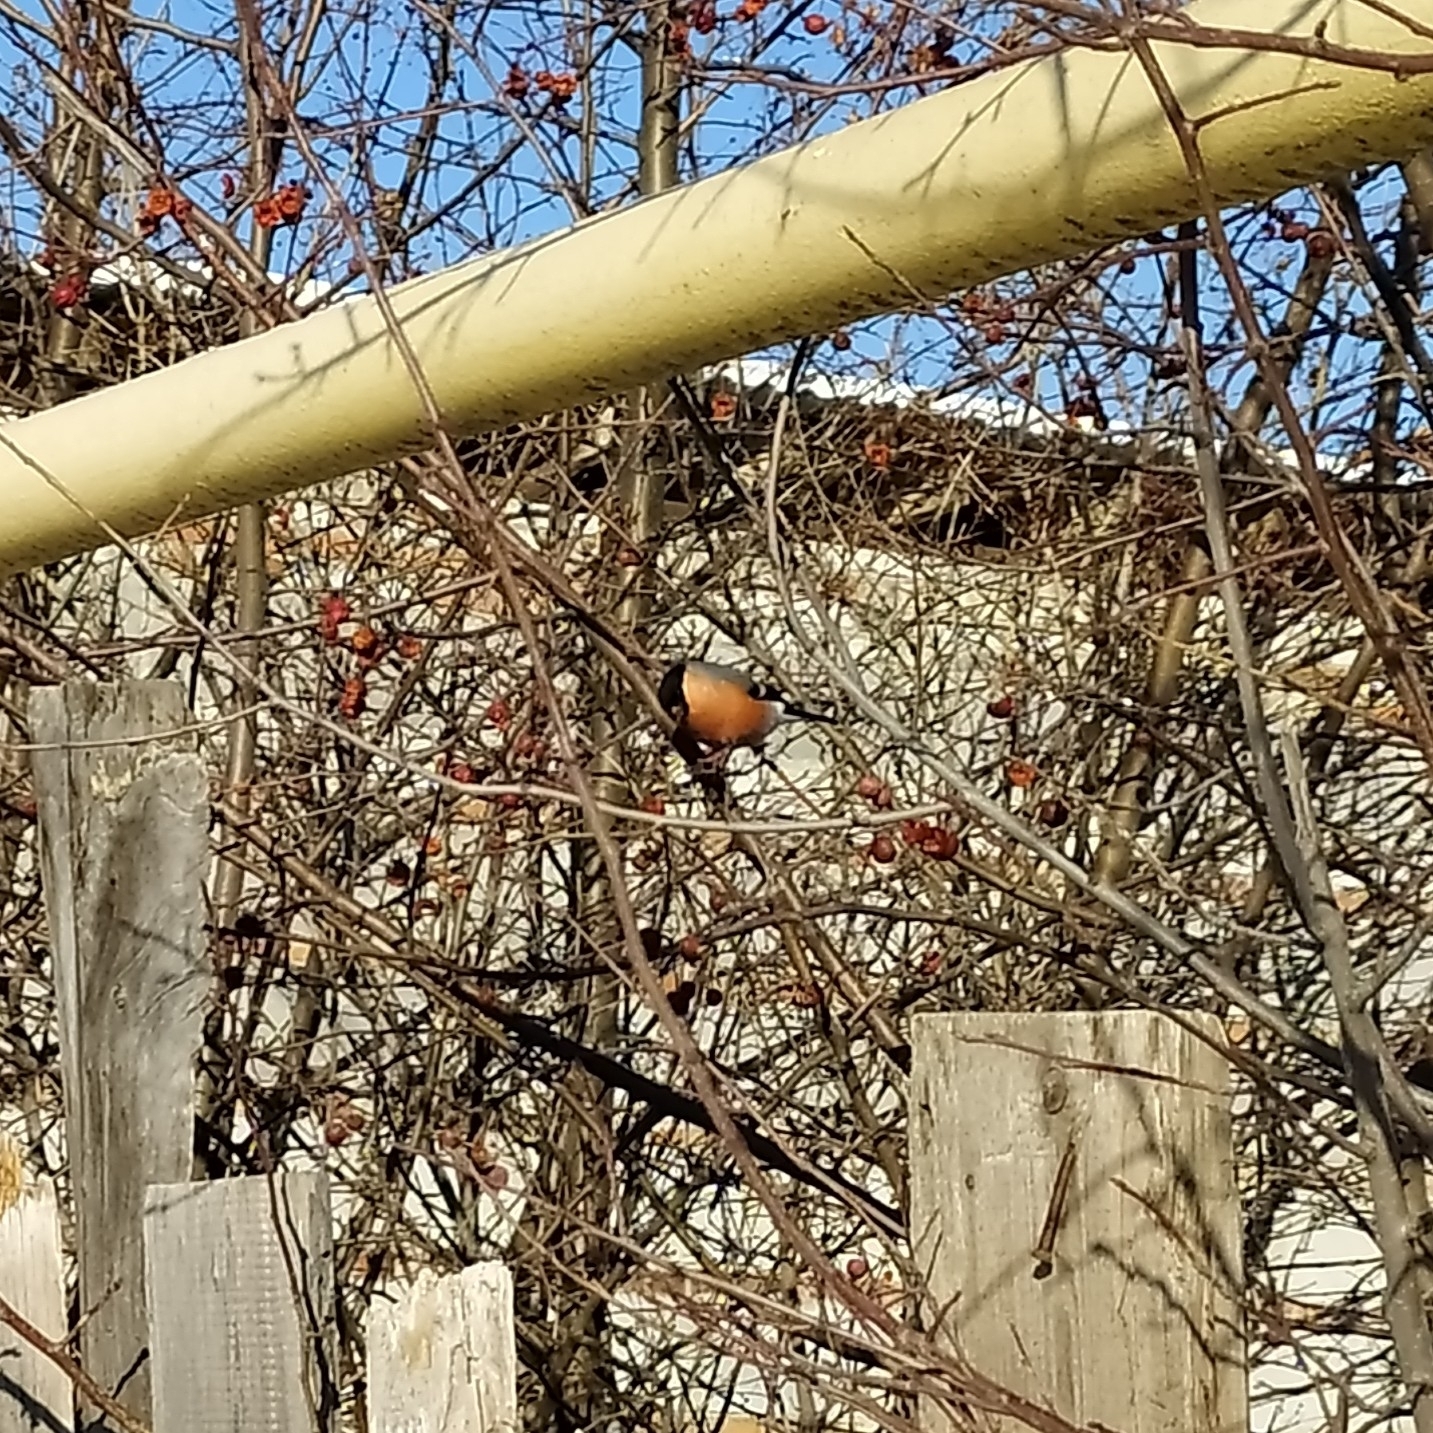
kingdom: Animalia
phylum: Chordata
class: Aves
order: Passeriformes
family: Fringillidae
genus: Pyrrhula
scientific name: Pyrrhula pyrrhula
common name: Eurasian bullfinch
